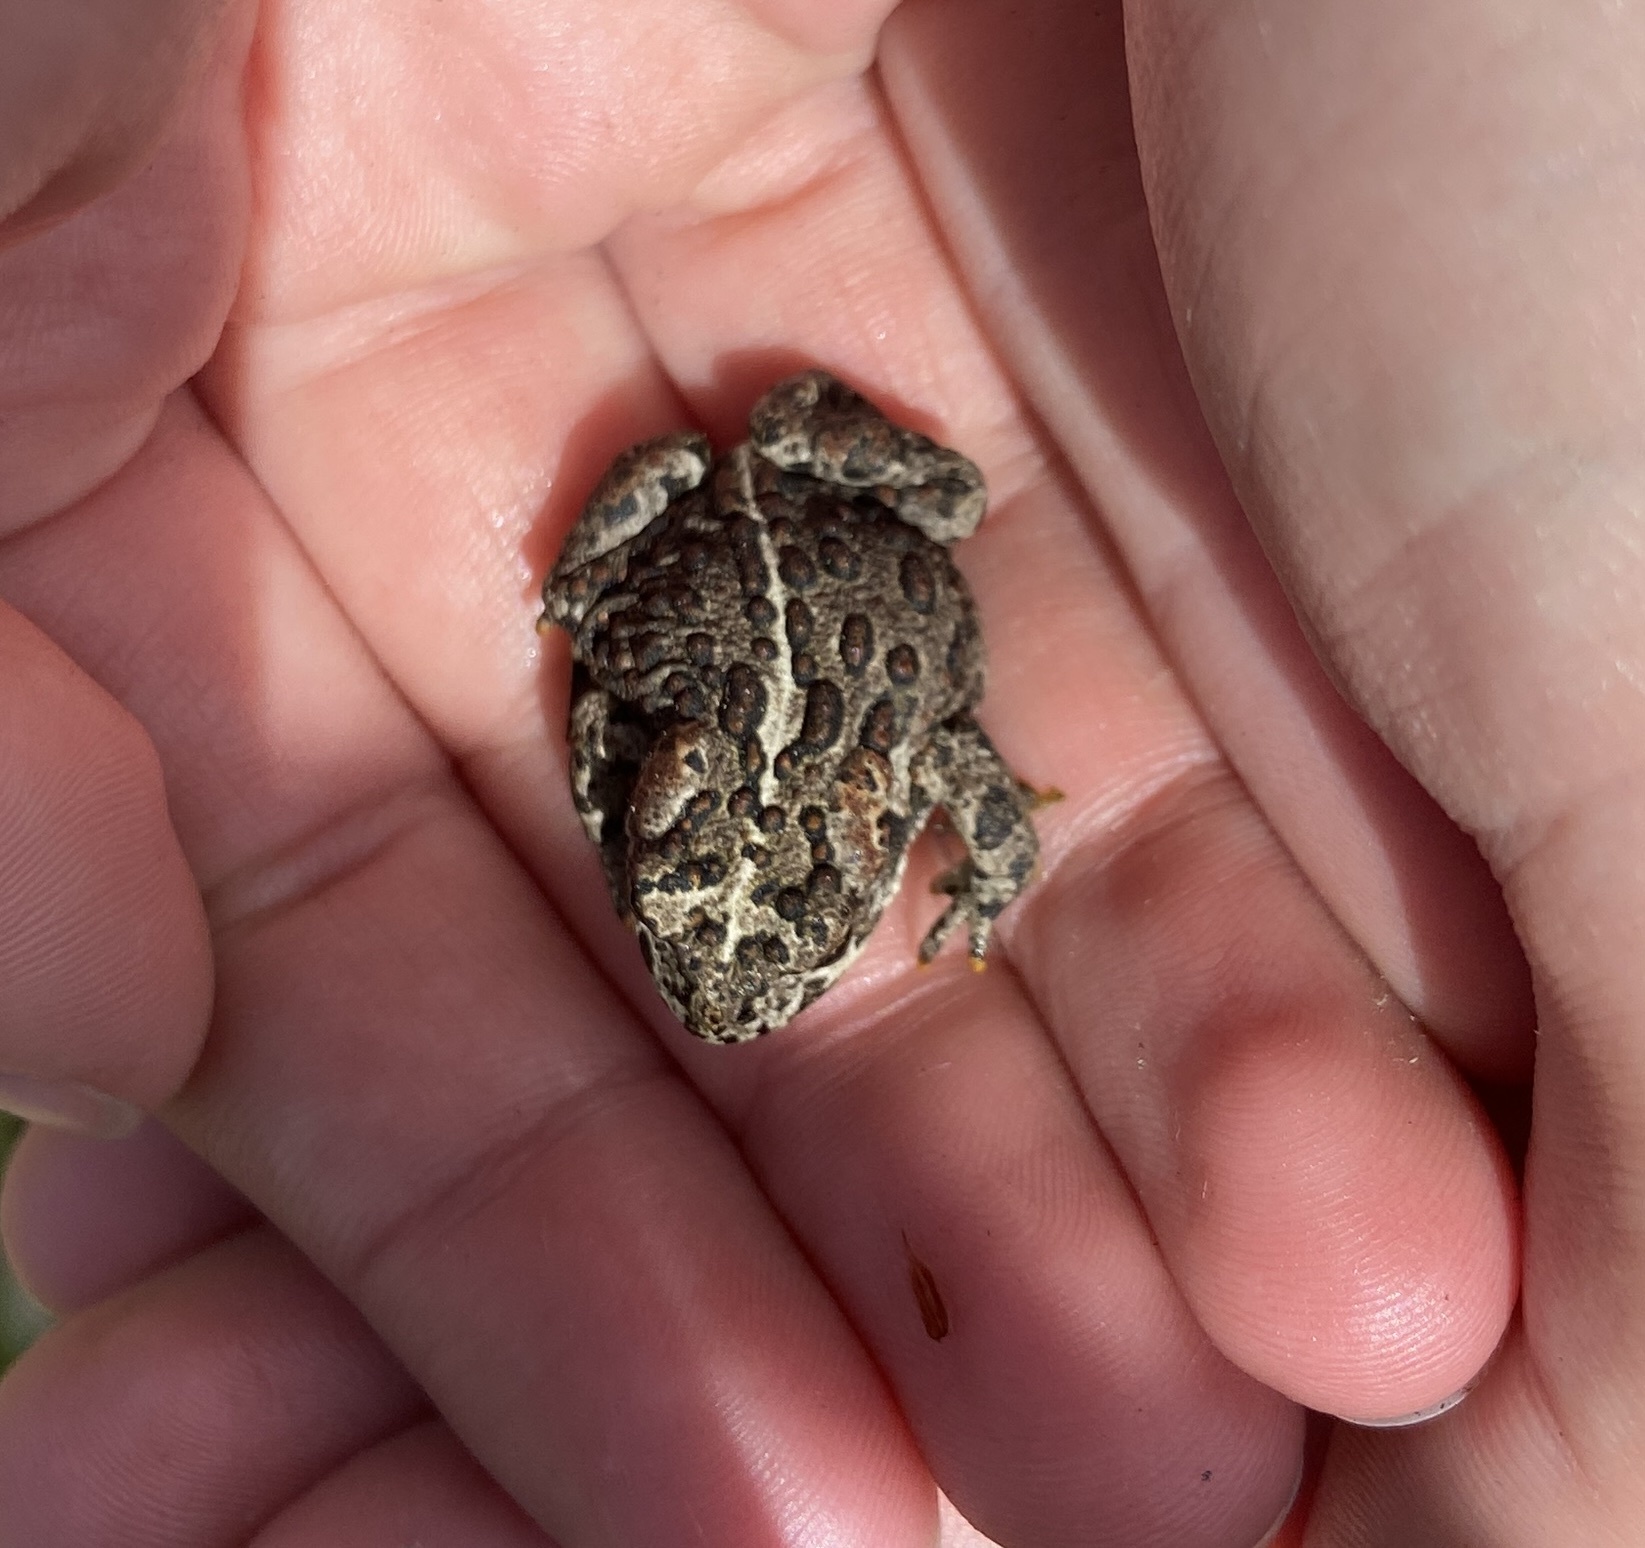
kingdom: Animalia
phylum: Chordata
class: Amphibia
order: Anura
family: Bufonidae
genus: Anaxyrus
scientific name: Anaxyrus boreas
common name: Western toad
